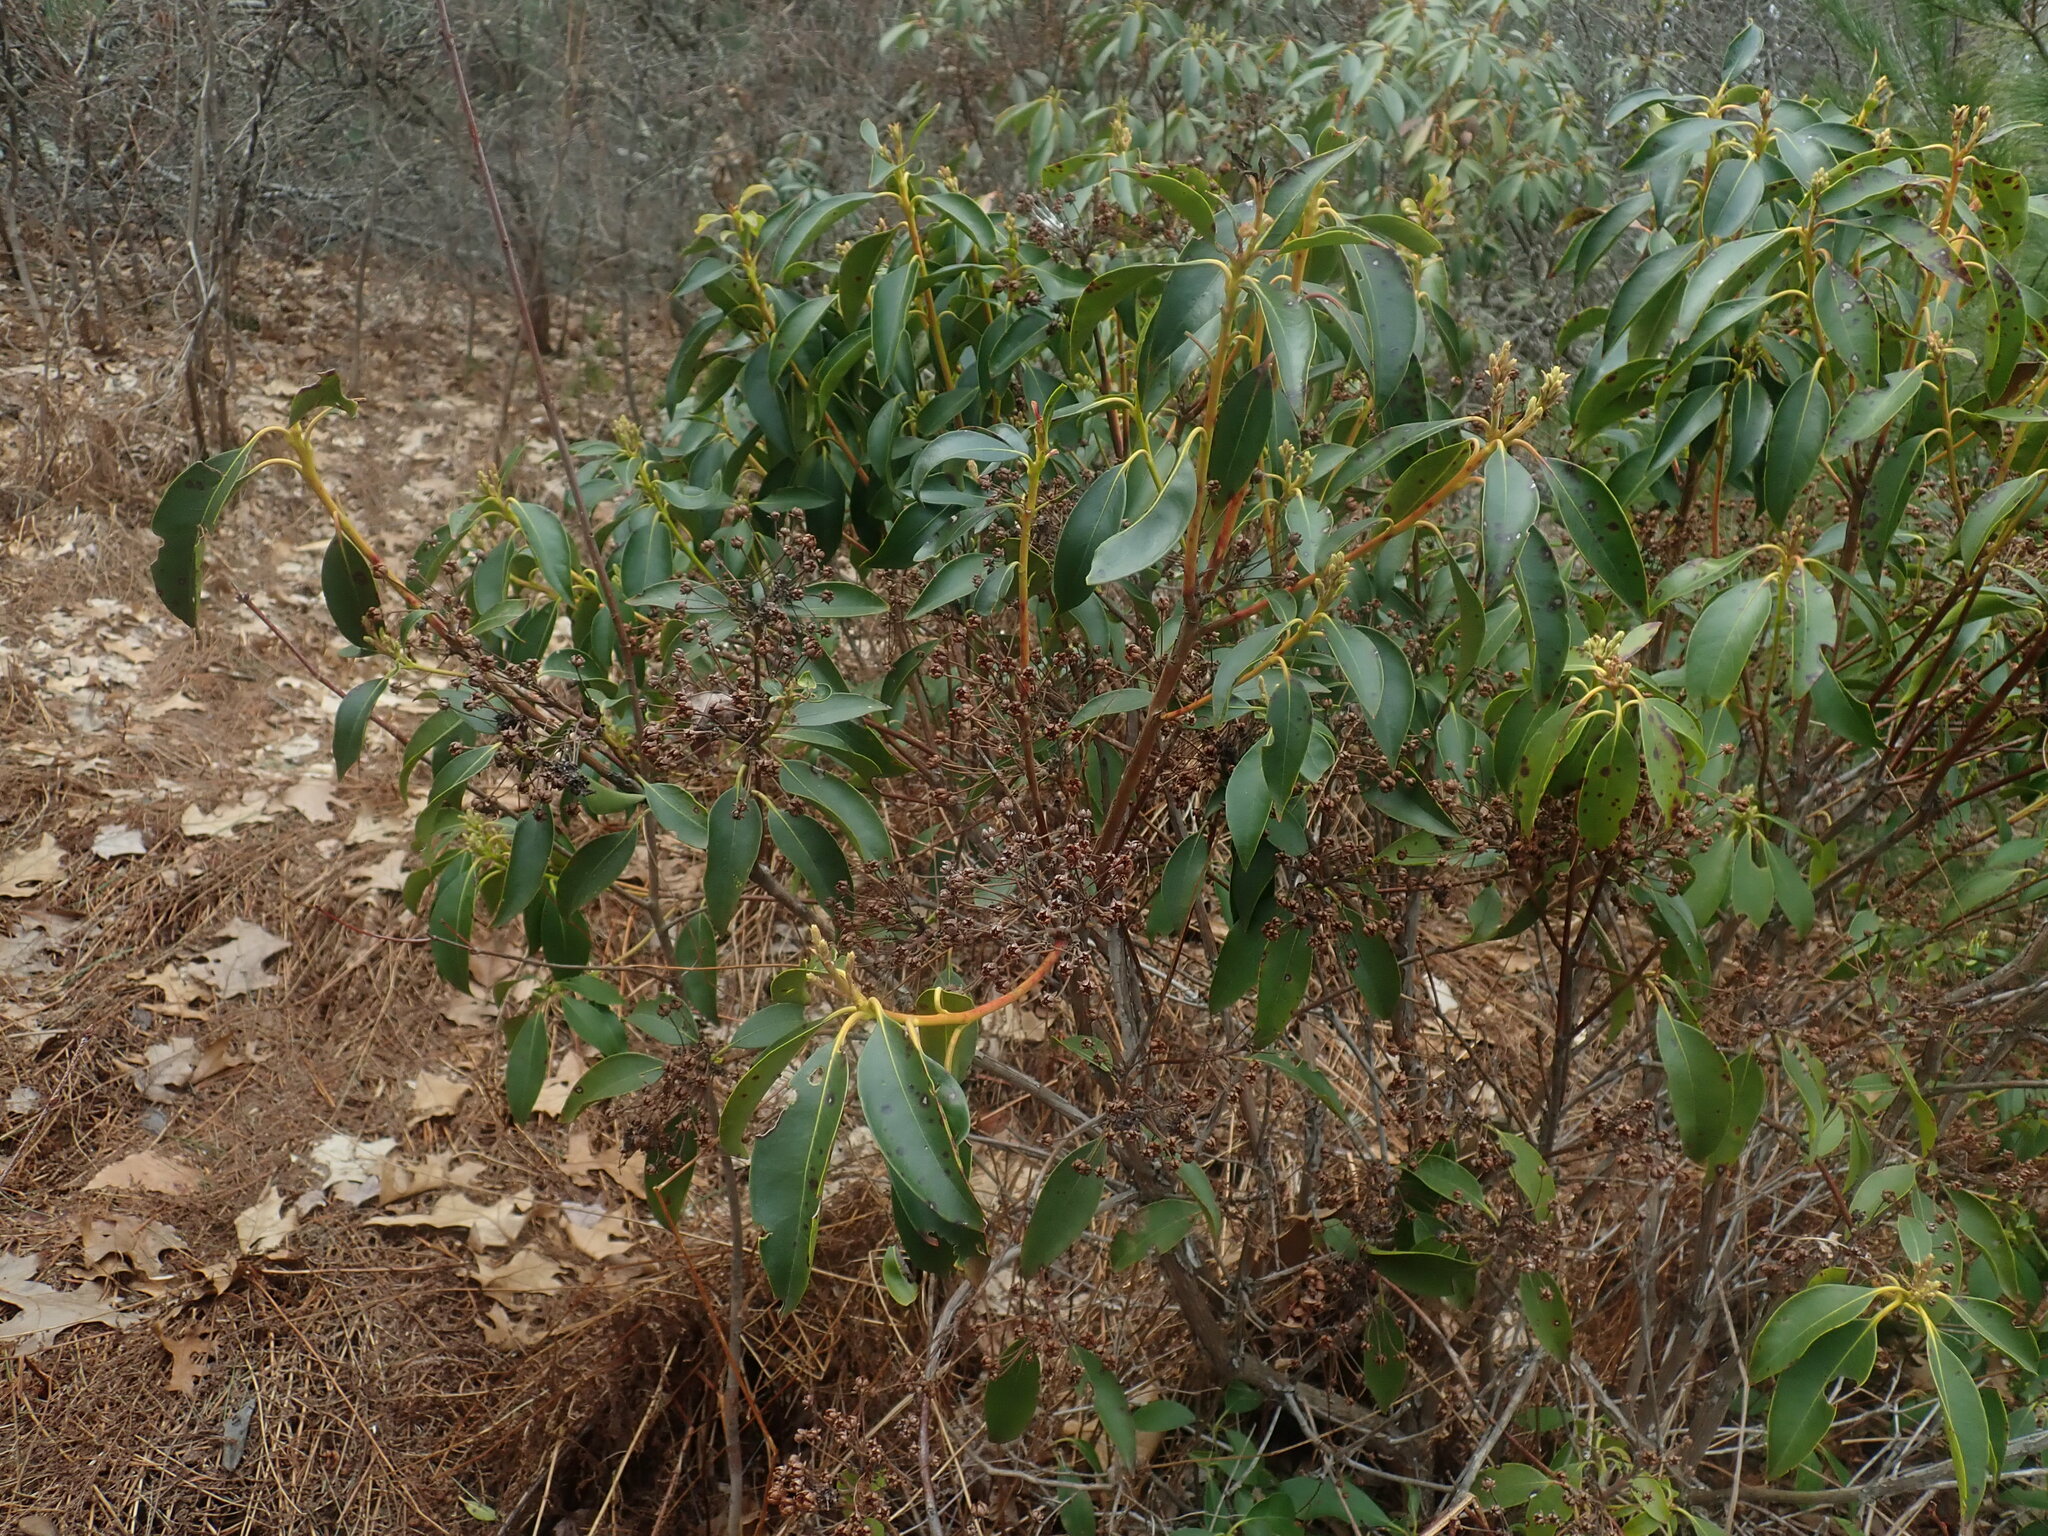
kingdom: Plantae
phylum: Tracheophyta
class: Magnoliopsida
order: Ericales
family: Ericaceae
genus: Kalmia
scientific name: Kalmia latifolia
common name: Mountain-laurel
